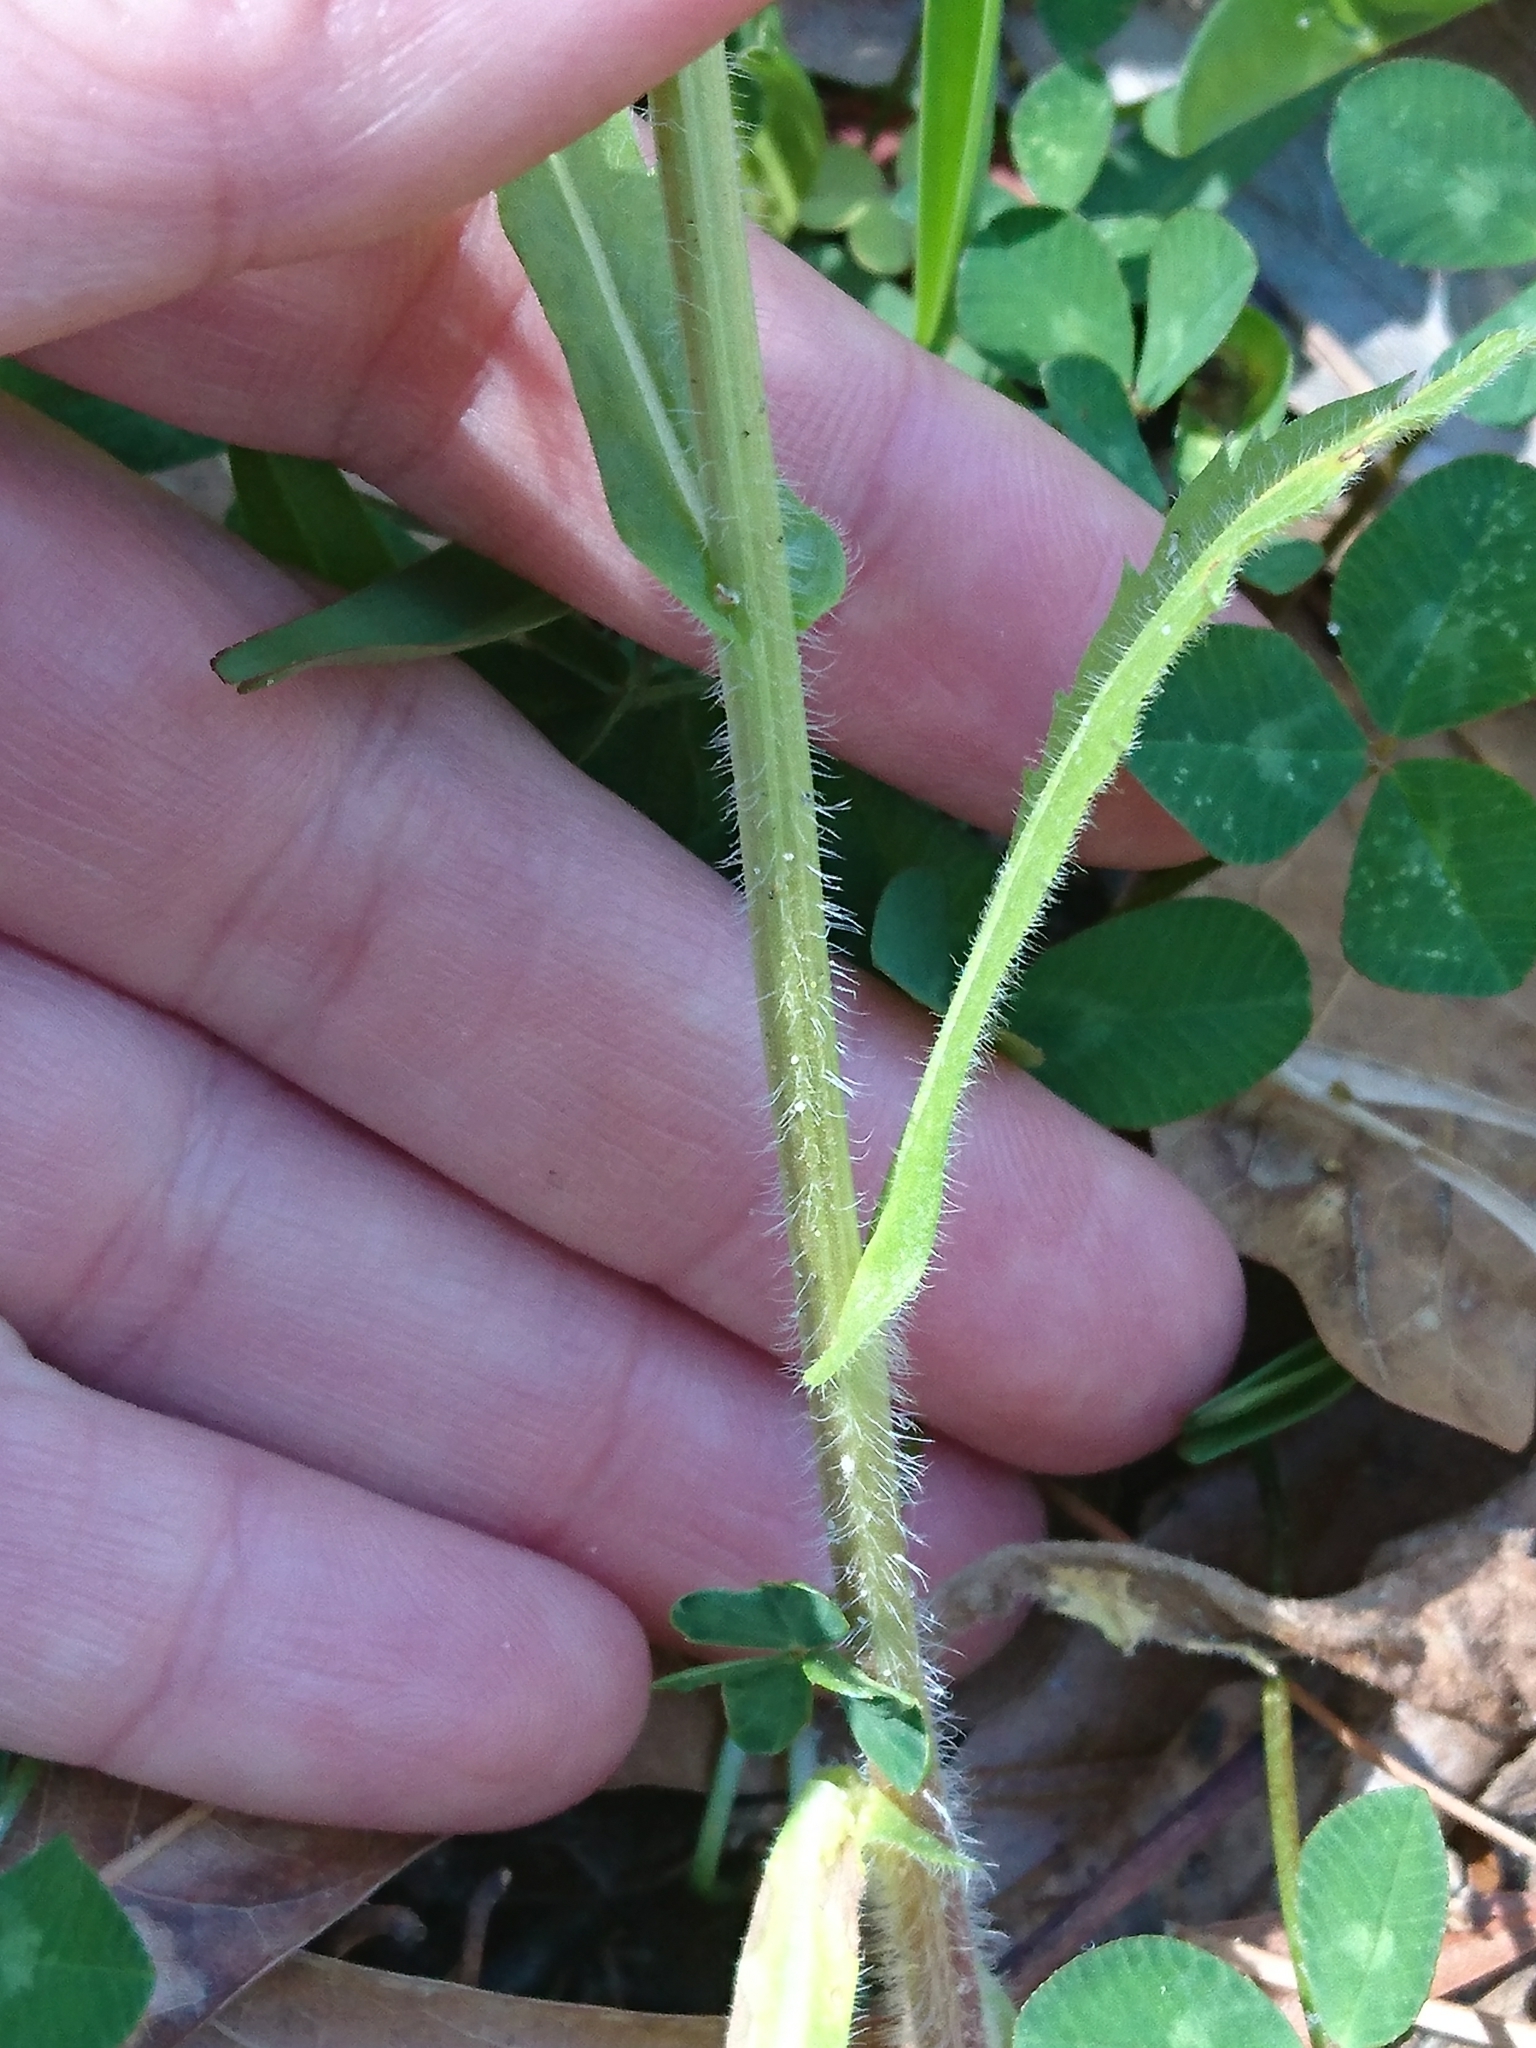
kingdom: Plantae
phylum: Tracheophyta
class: Magnoliopsida
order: Asterales
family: Asteraceae
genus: Erigeron
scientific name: Erigeron philadelphicus
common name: Robin's-plantain
